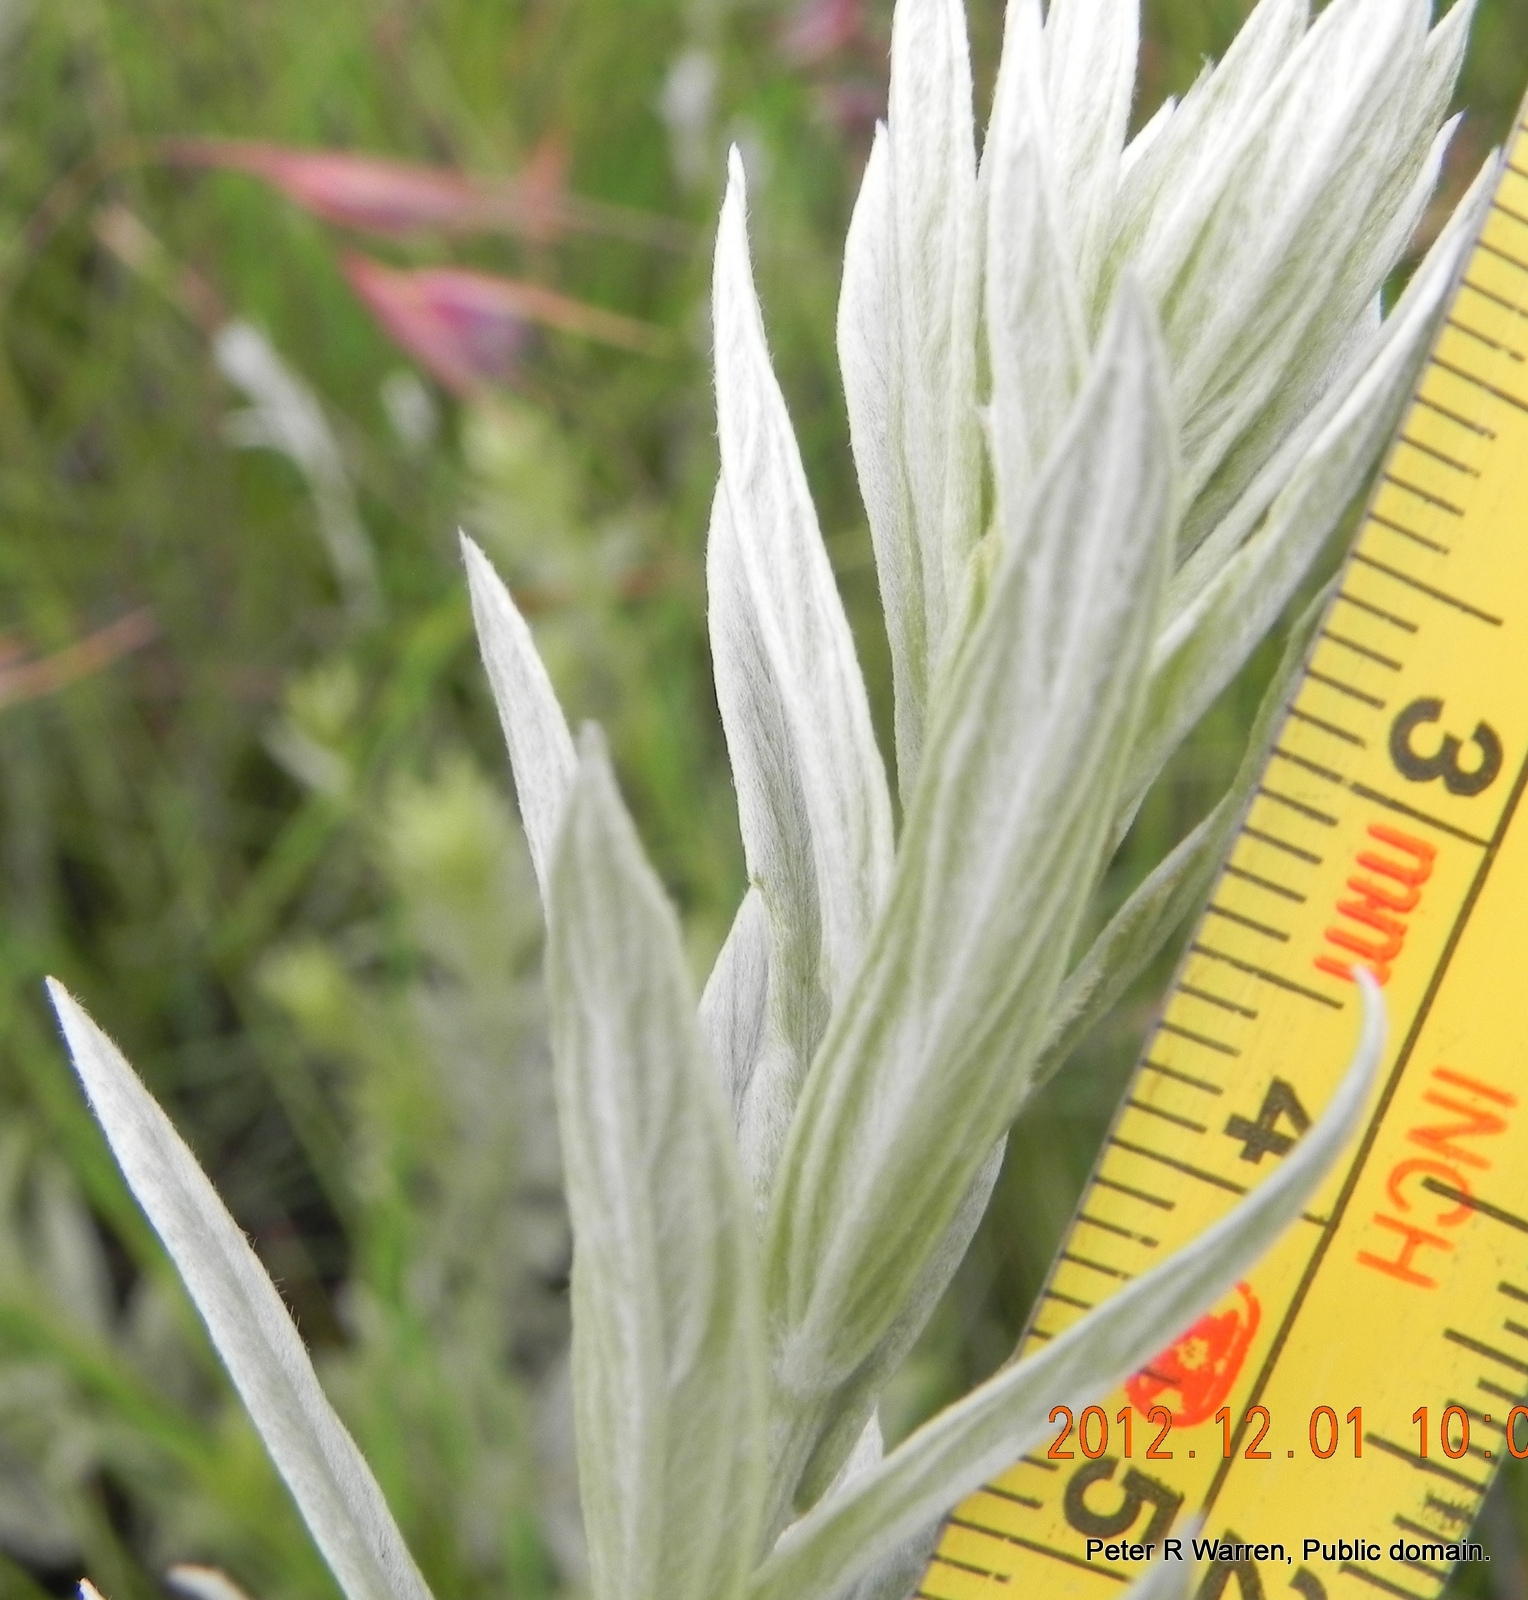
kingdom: Plantae
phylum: Tracheophyta
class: Magnoliopsida
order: Asterales
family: Asteraceae
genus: Hilliardiella
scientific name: Hilliardiella aristata
